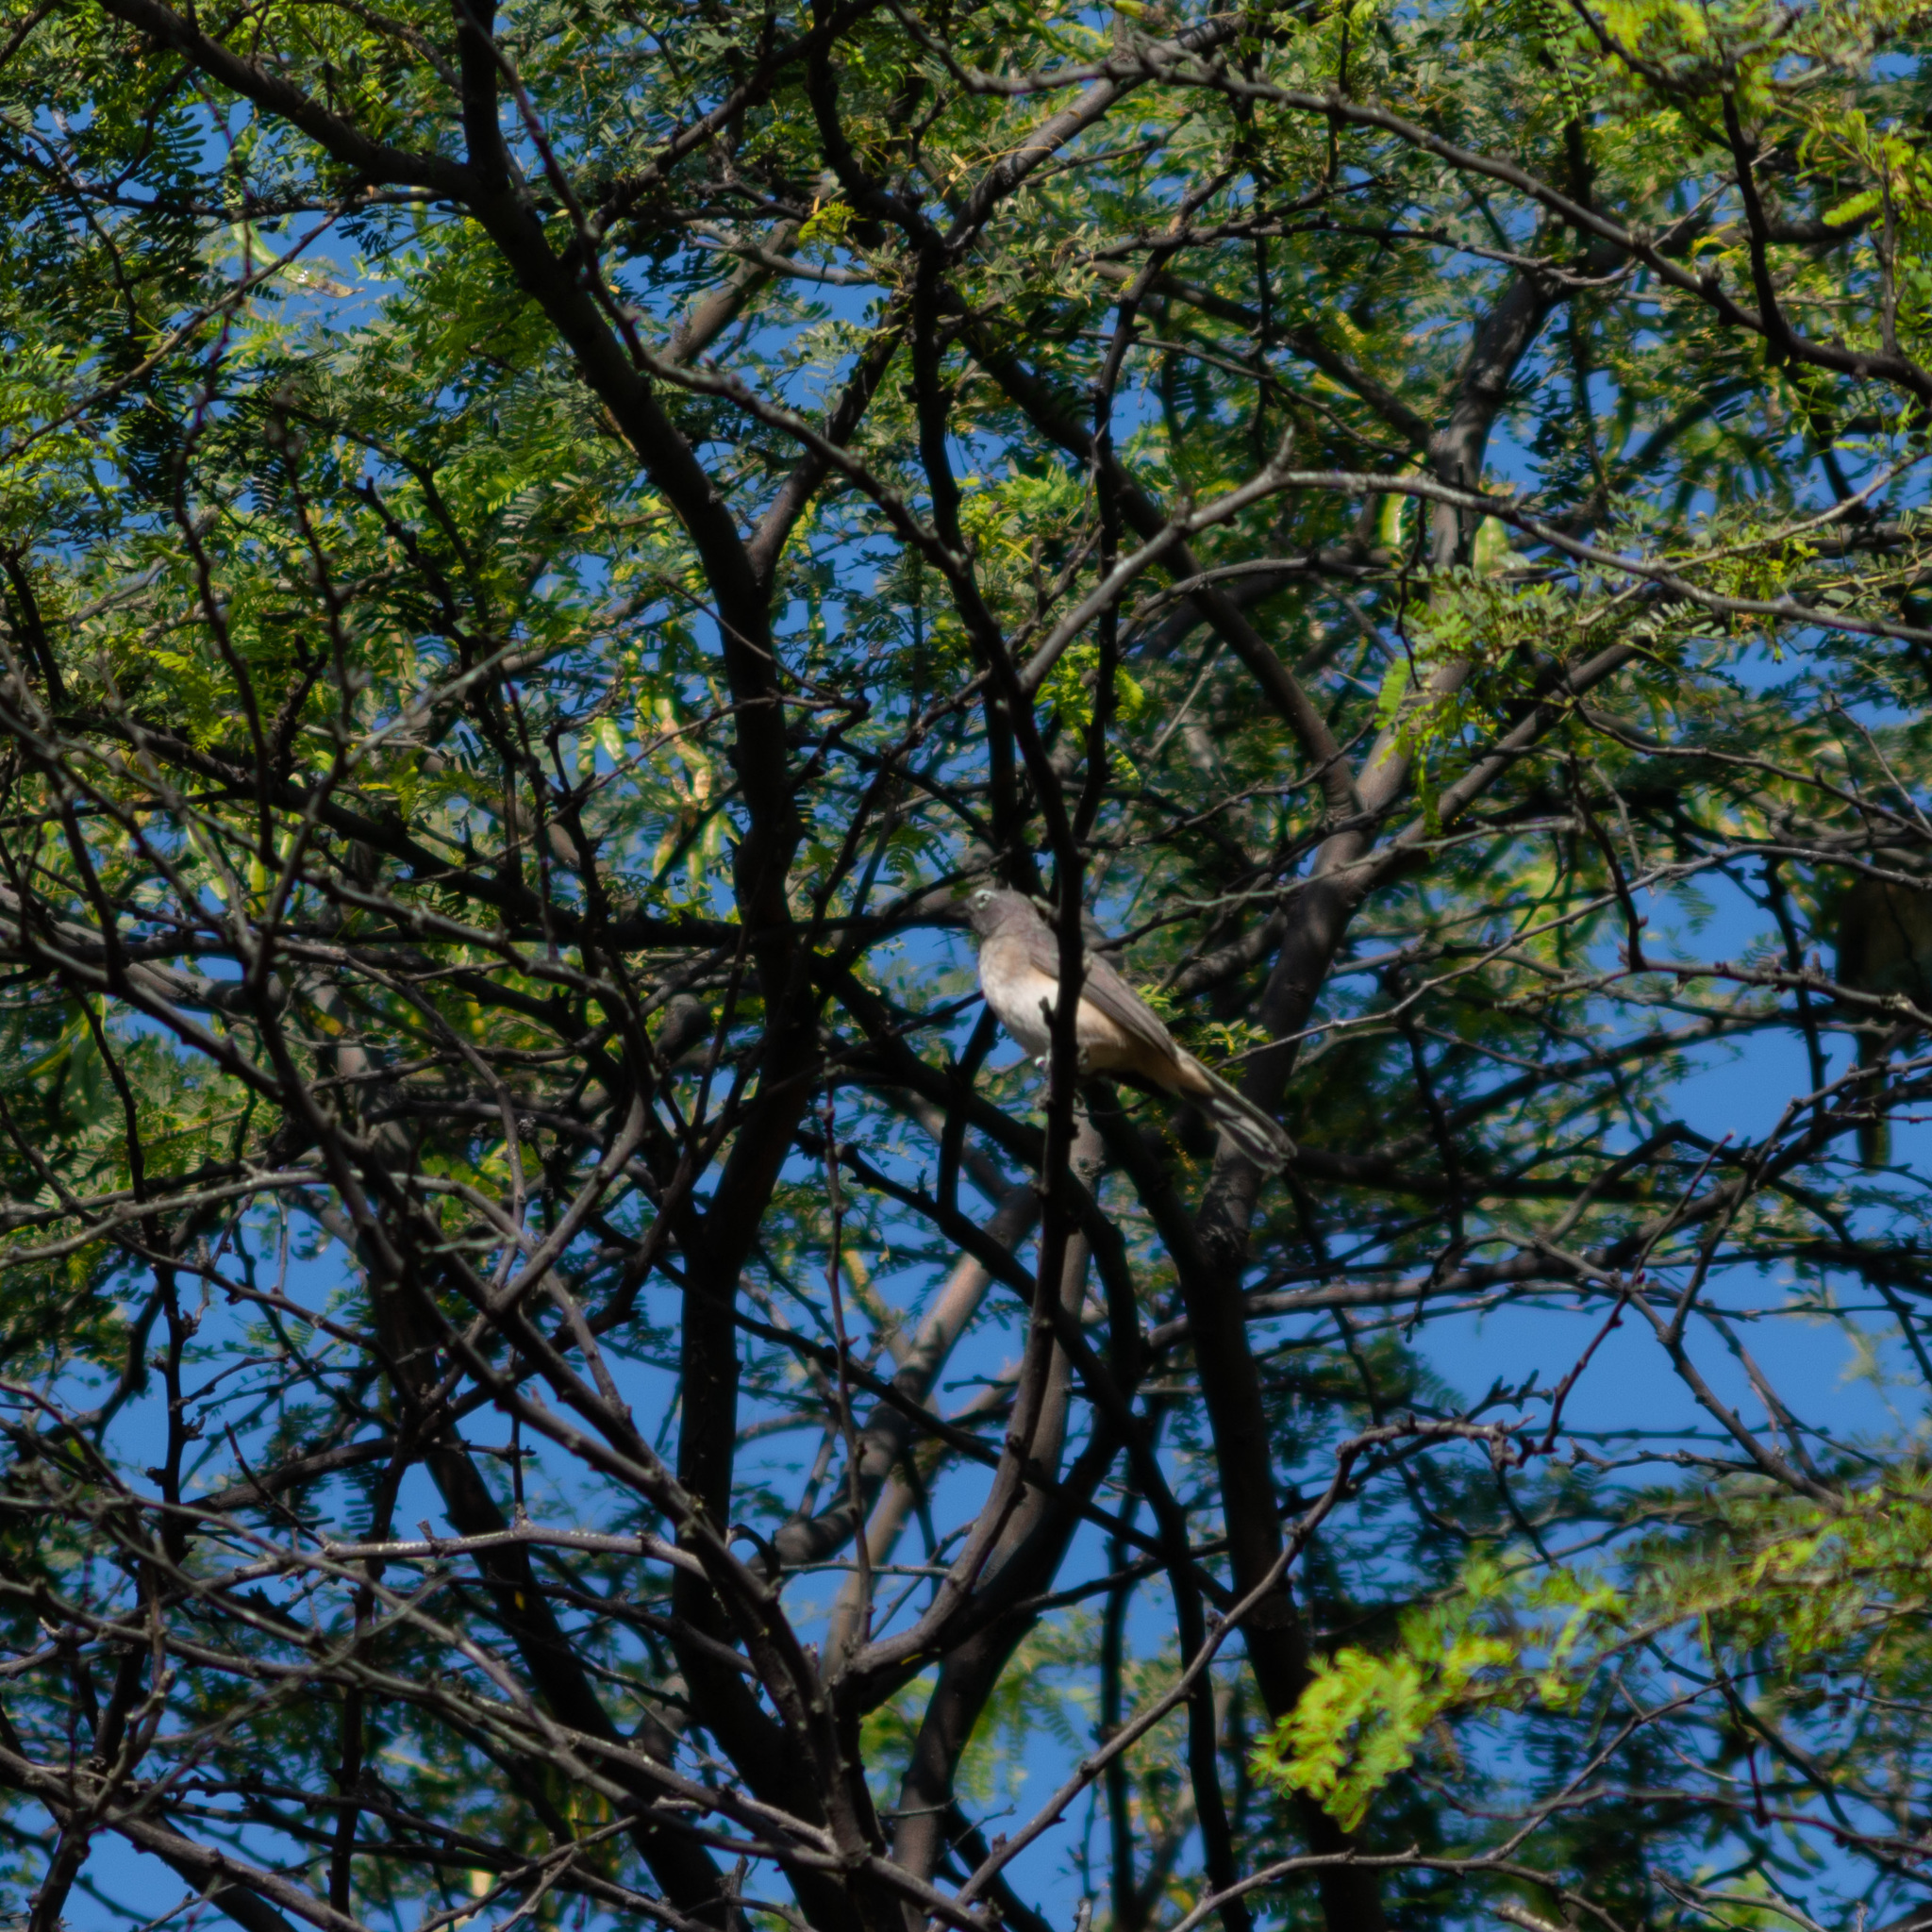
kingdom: Animalia
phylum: Chordata
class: Aves
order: Passeriformes
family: Thraupidae
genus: Saltator
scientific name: Saltator olivascens
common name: Caribbean grey saltator
